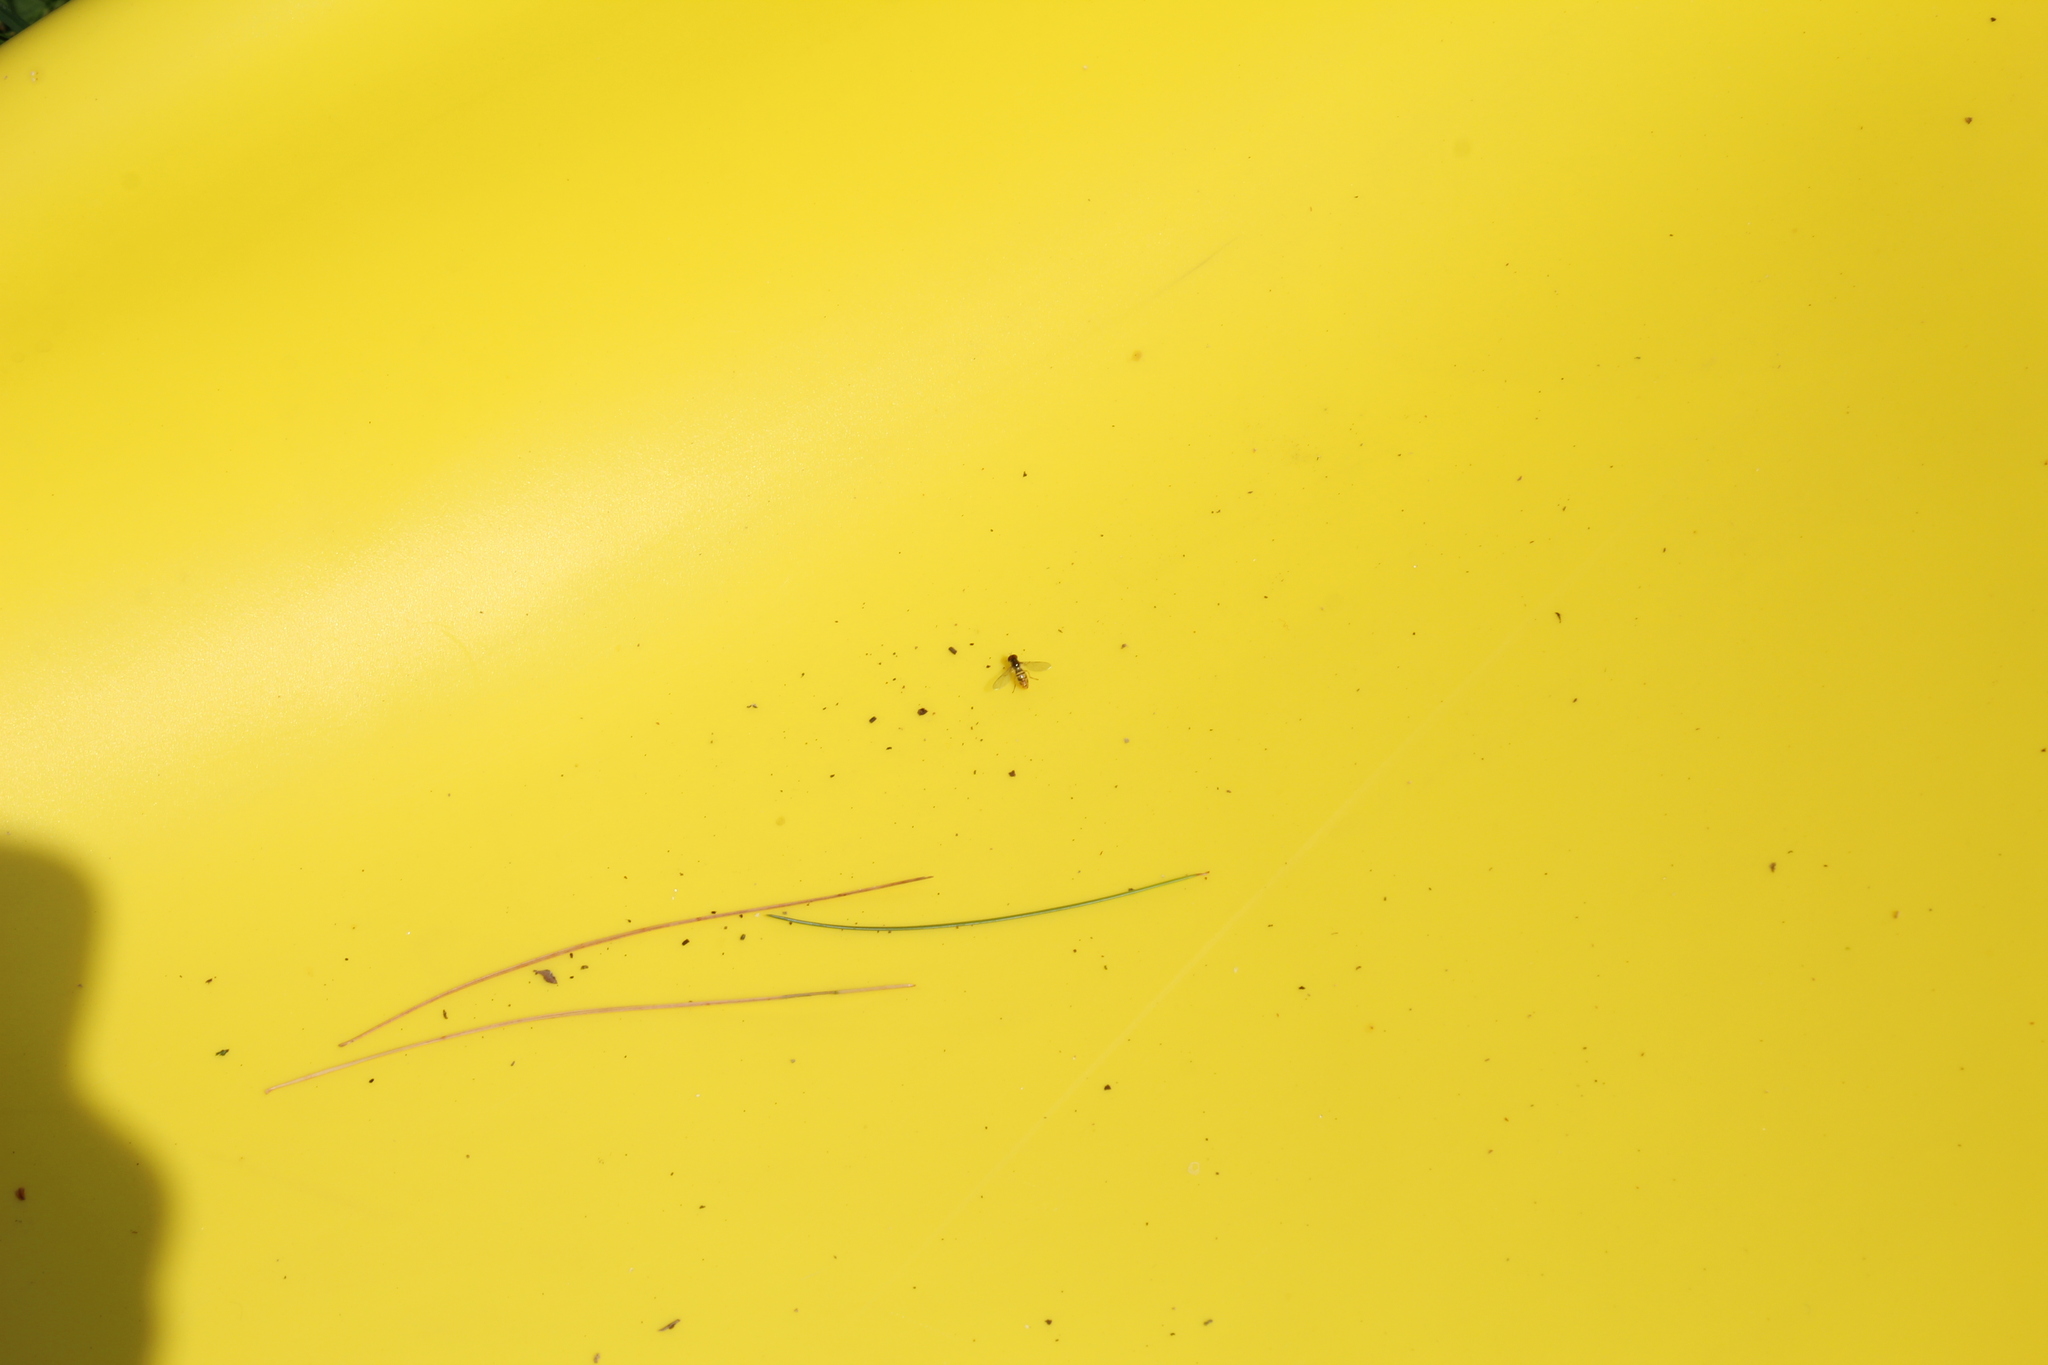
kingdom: Animalia
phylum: Arthropoda
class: Insecta
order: Diptera
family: Syrphidae
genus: Toxomerus
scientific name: Toxomerus marginatus
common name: Syrphid fly
